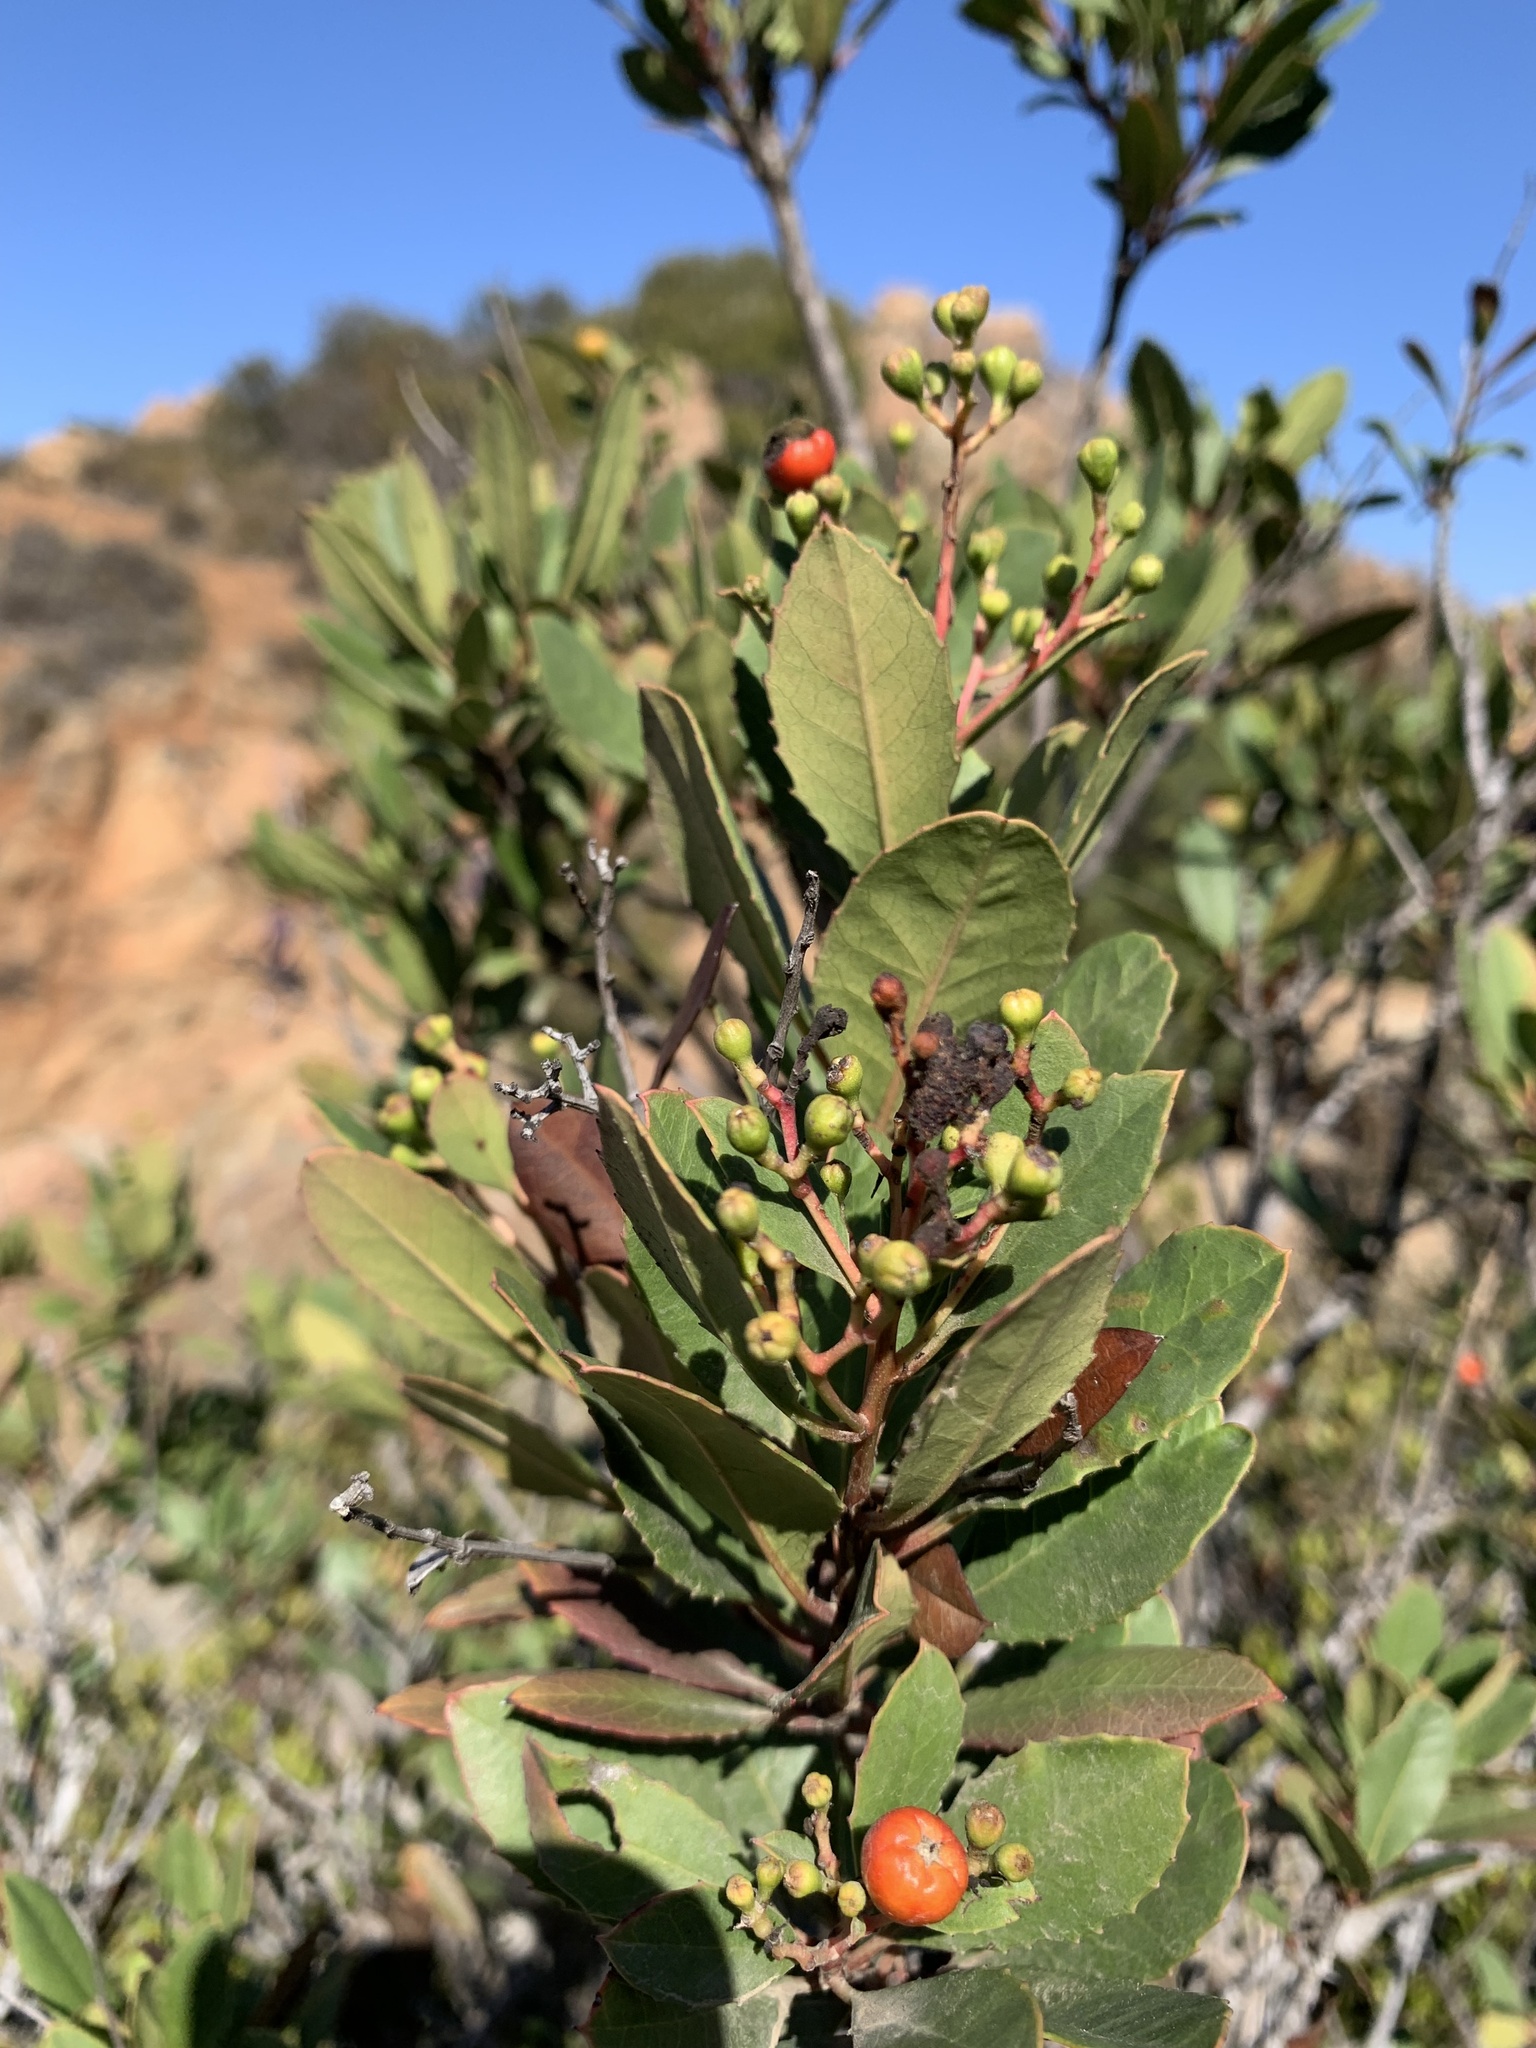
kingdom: Plantae
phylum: Tracheophyta
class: Magnoliopsida
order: Rosales
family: Rosaceae
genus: Heteromeles
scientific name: Heteromeles arbutifolia
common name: California-holly
